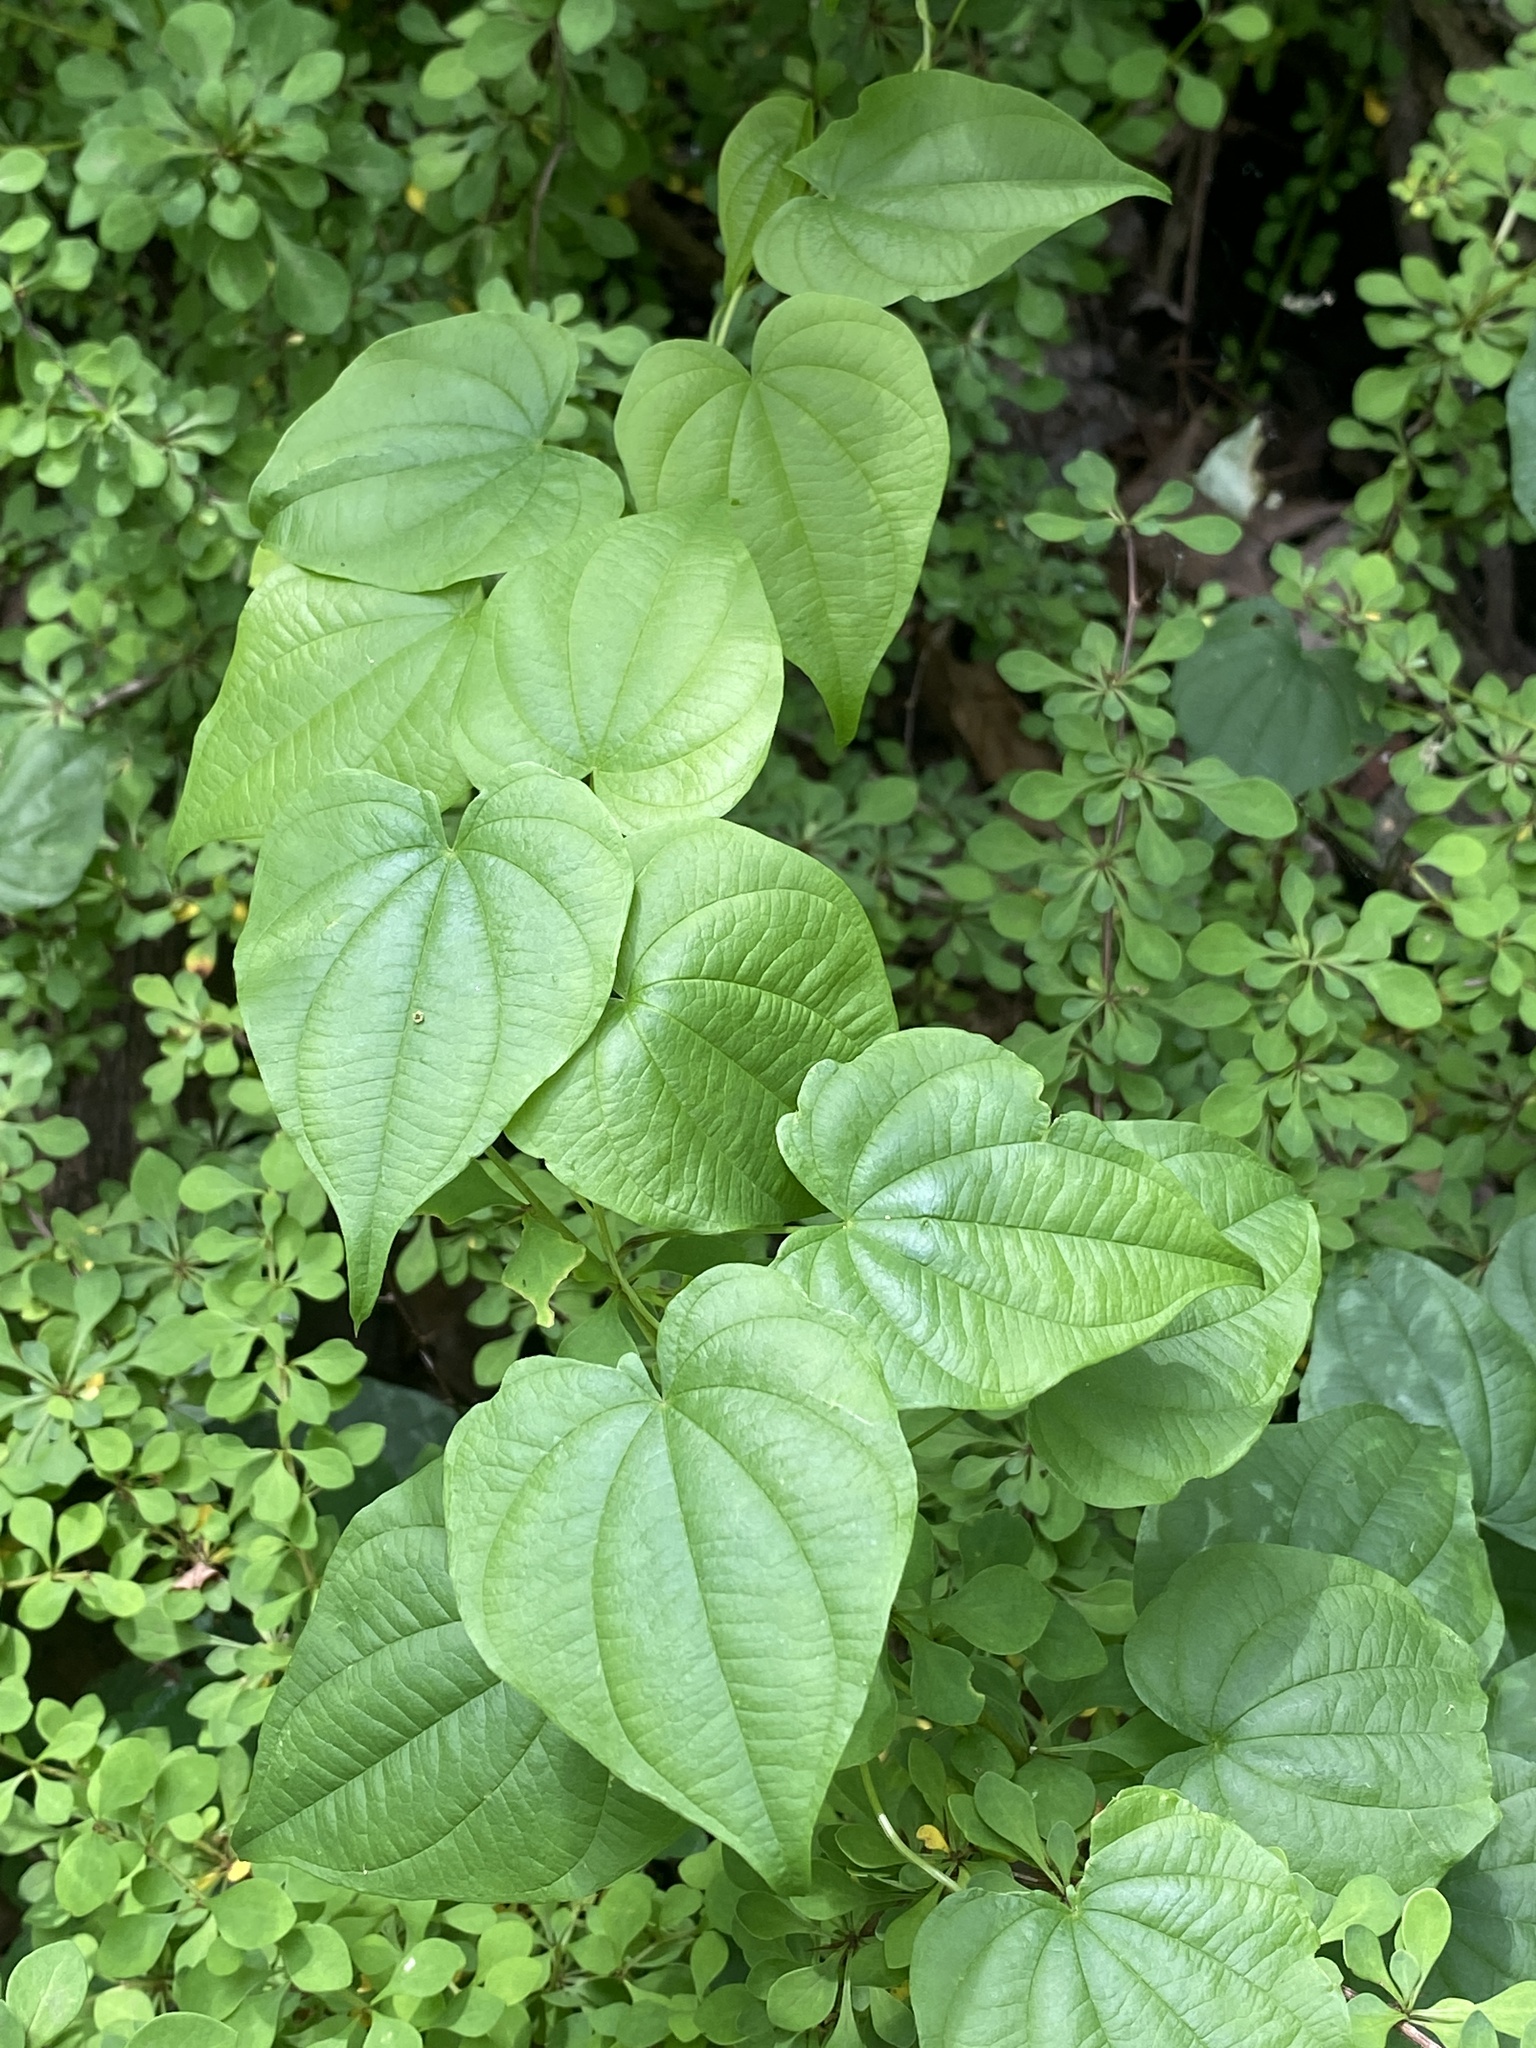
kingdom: Plantae
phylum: Tracheophyta
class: Liliopsida
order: Dioscoreales
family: Dioscoreaceae
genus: Dioscorea
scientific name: Dioscorea villosa
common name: Wild yam
